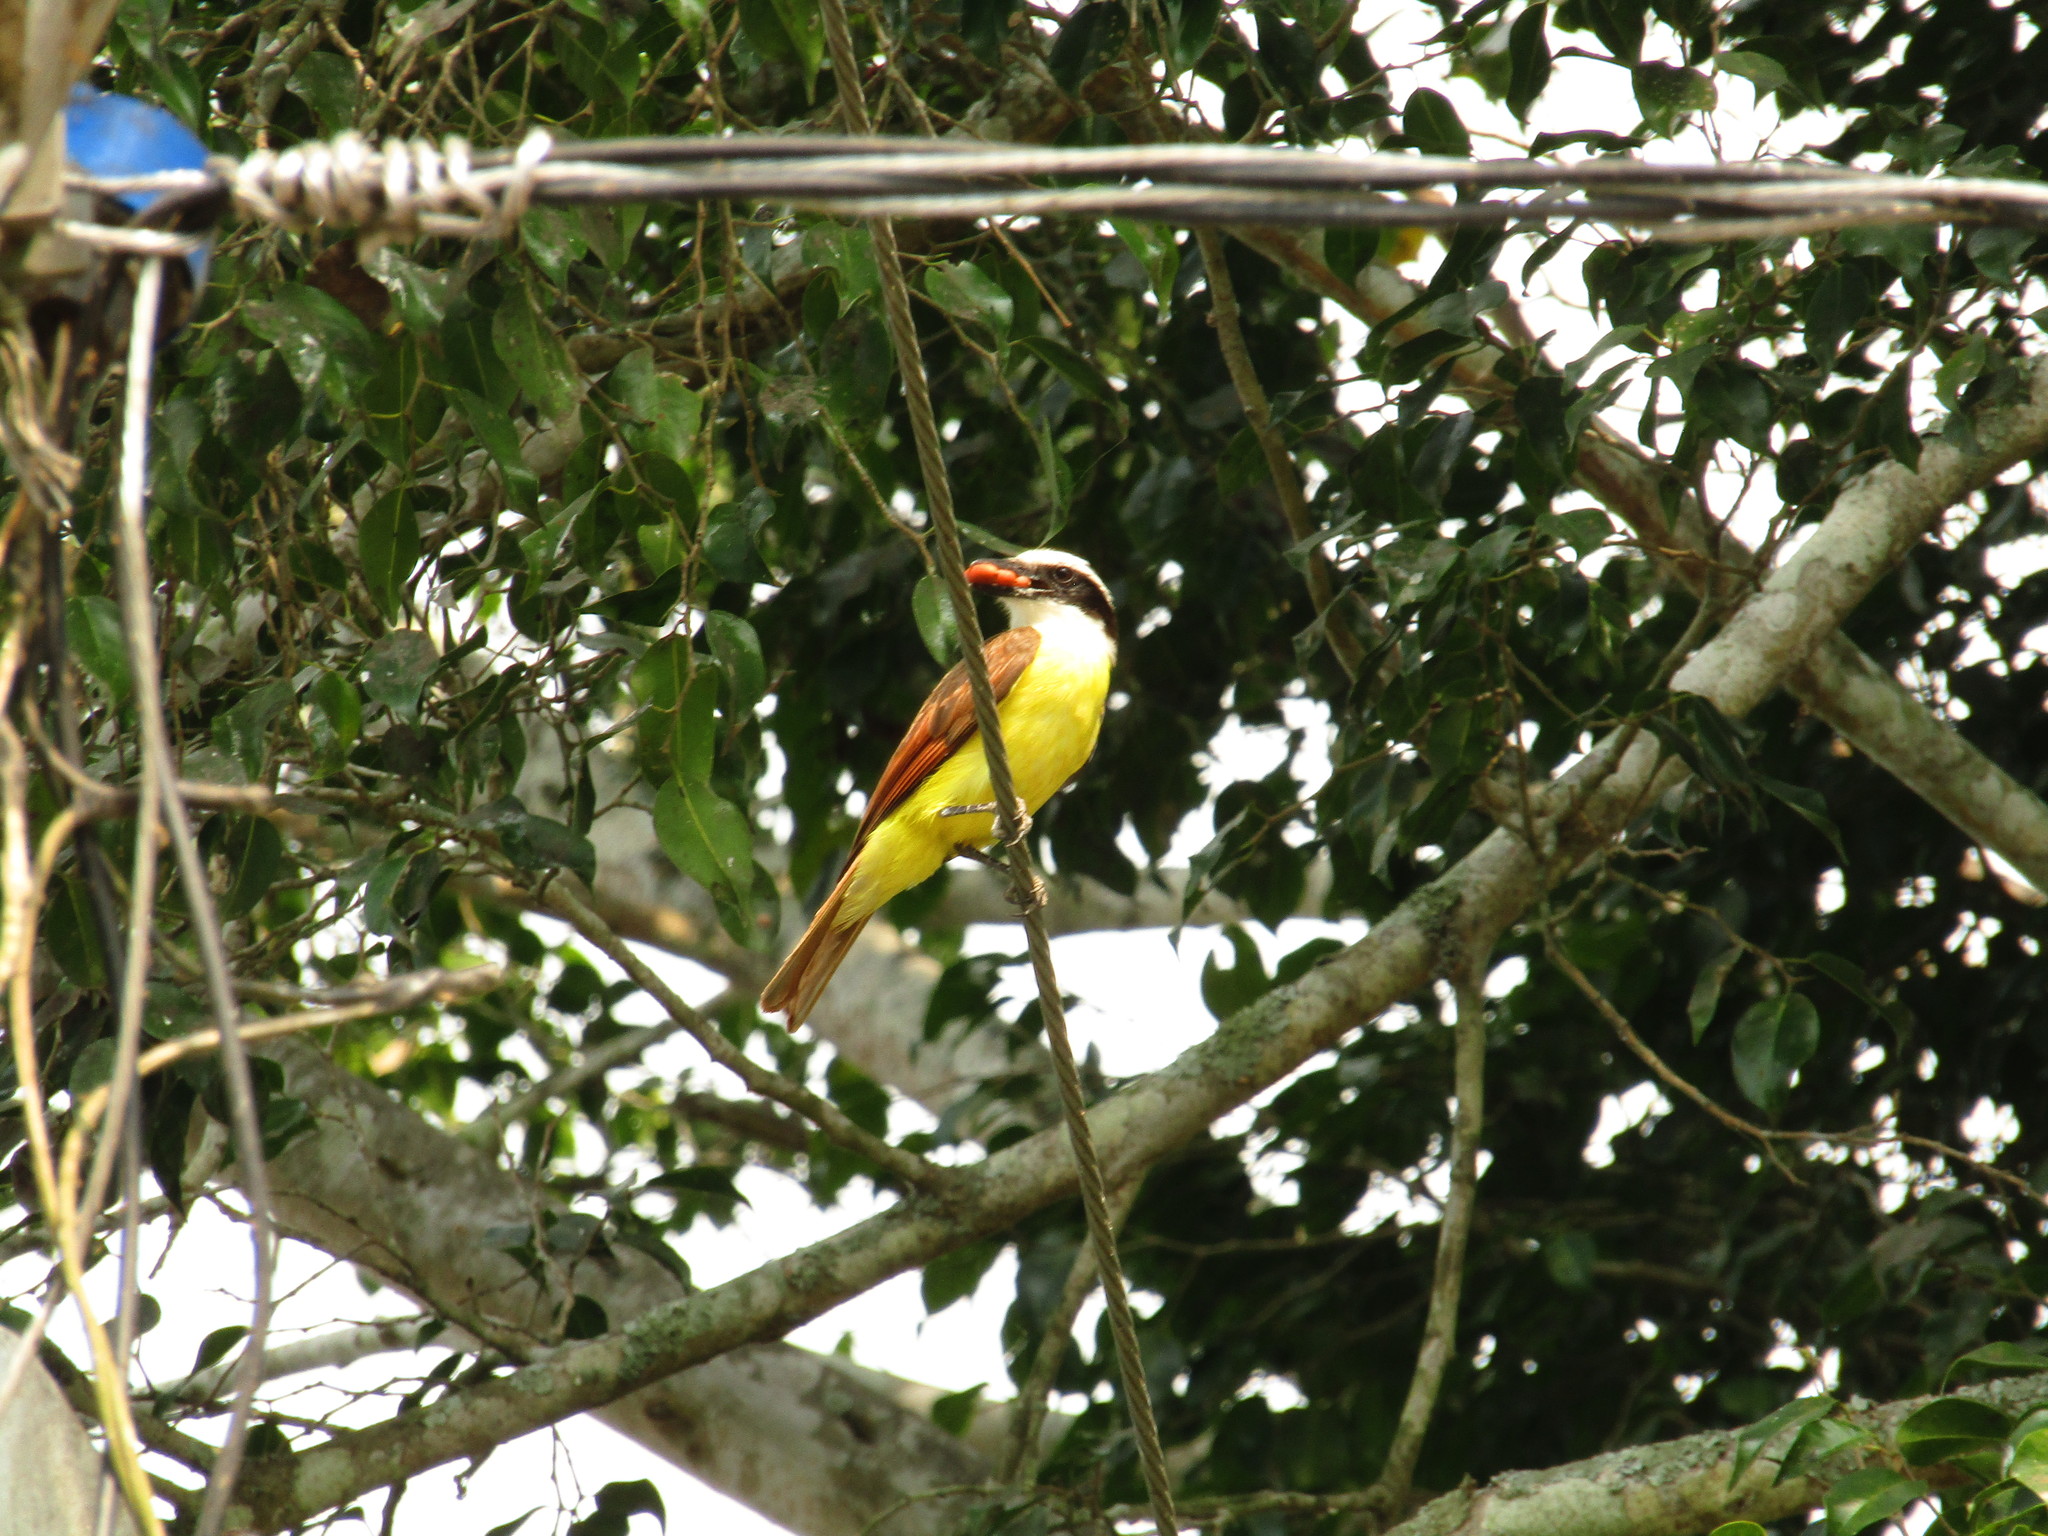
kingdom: Animalia
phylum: Chordata
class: Aves
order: Passeriformes
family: Tyrannidae
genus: Pitangus
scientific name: Pitangus sulphuratus
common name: Great kiskadee
